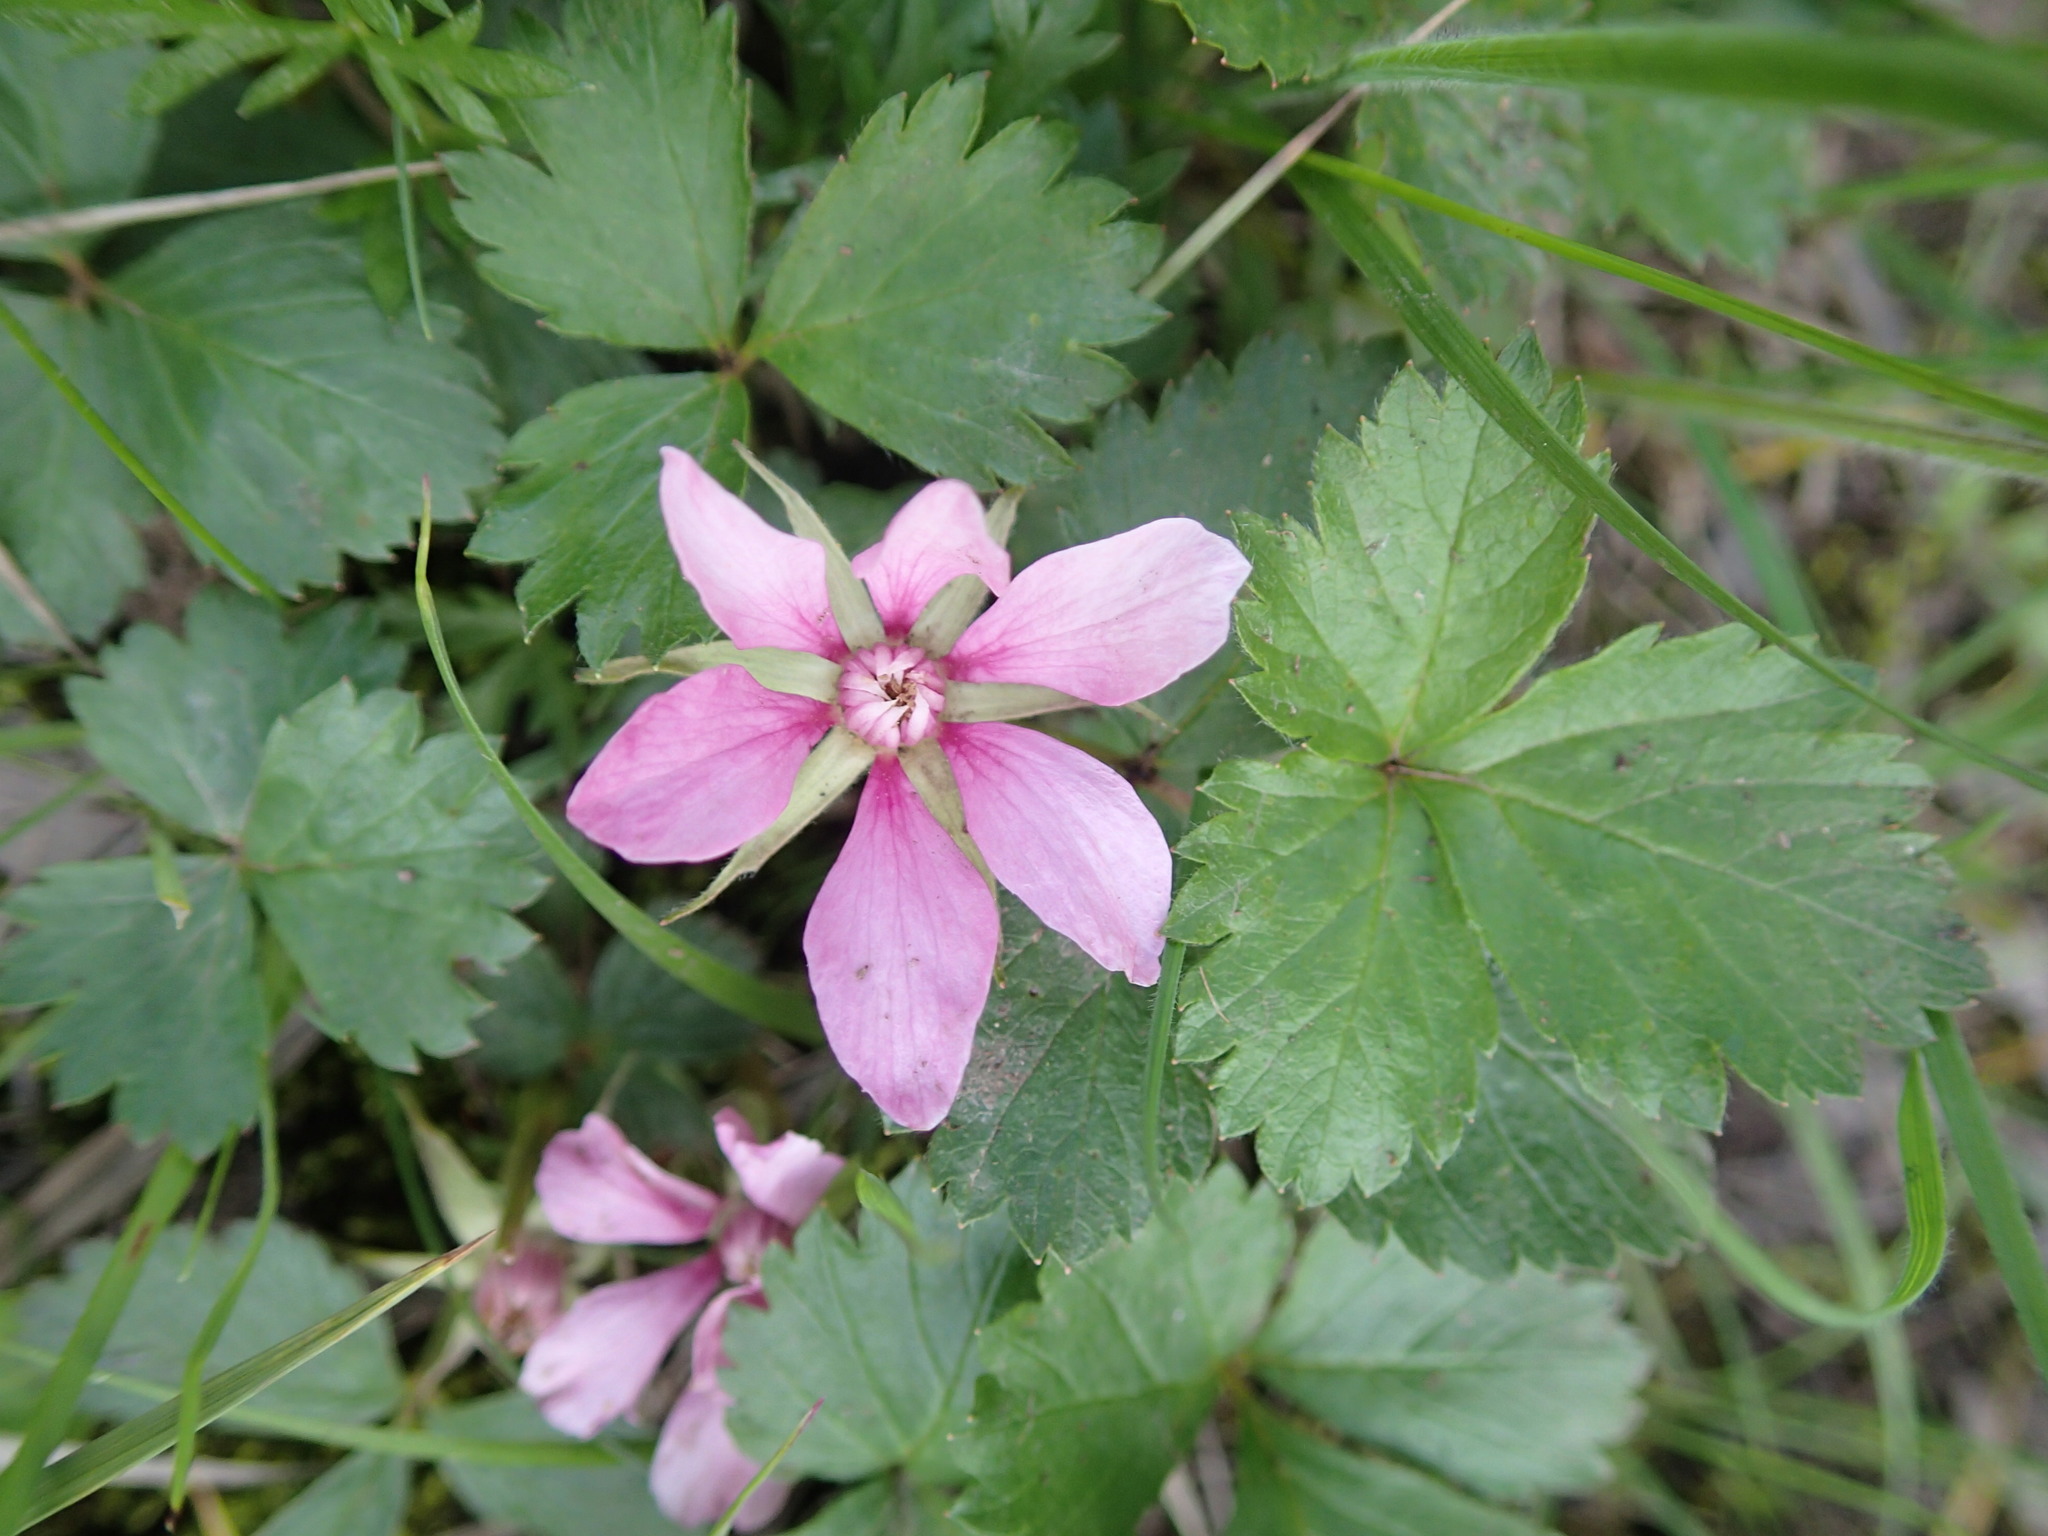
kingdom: Plantae
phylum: Tracheophyta
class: Magnoliopsida
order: Rosales
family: Rosaceae
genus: Rubus
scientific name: Rubus arcticus
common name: Arctic bramble
